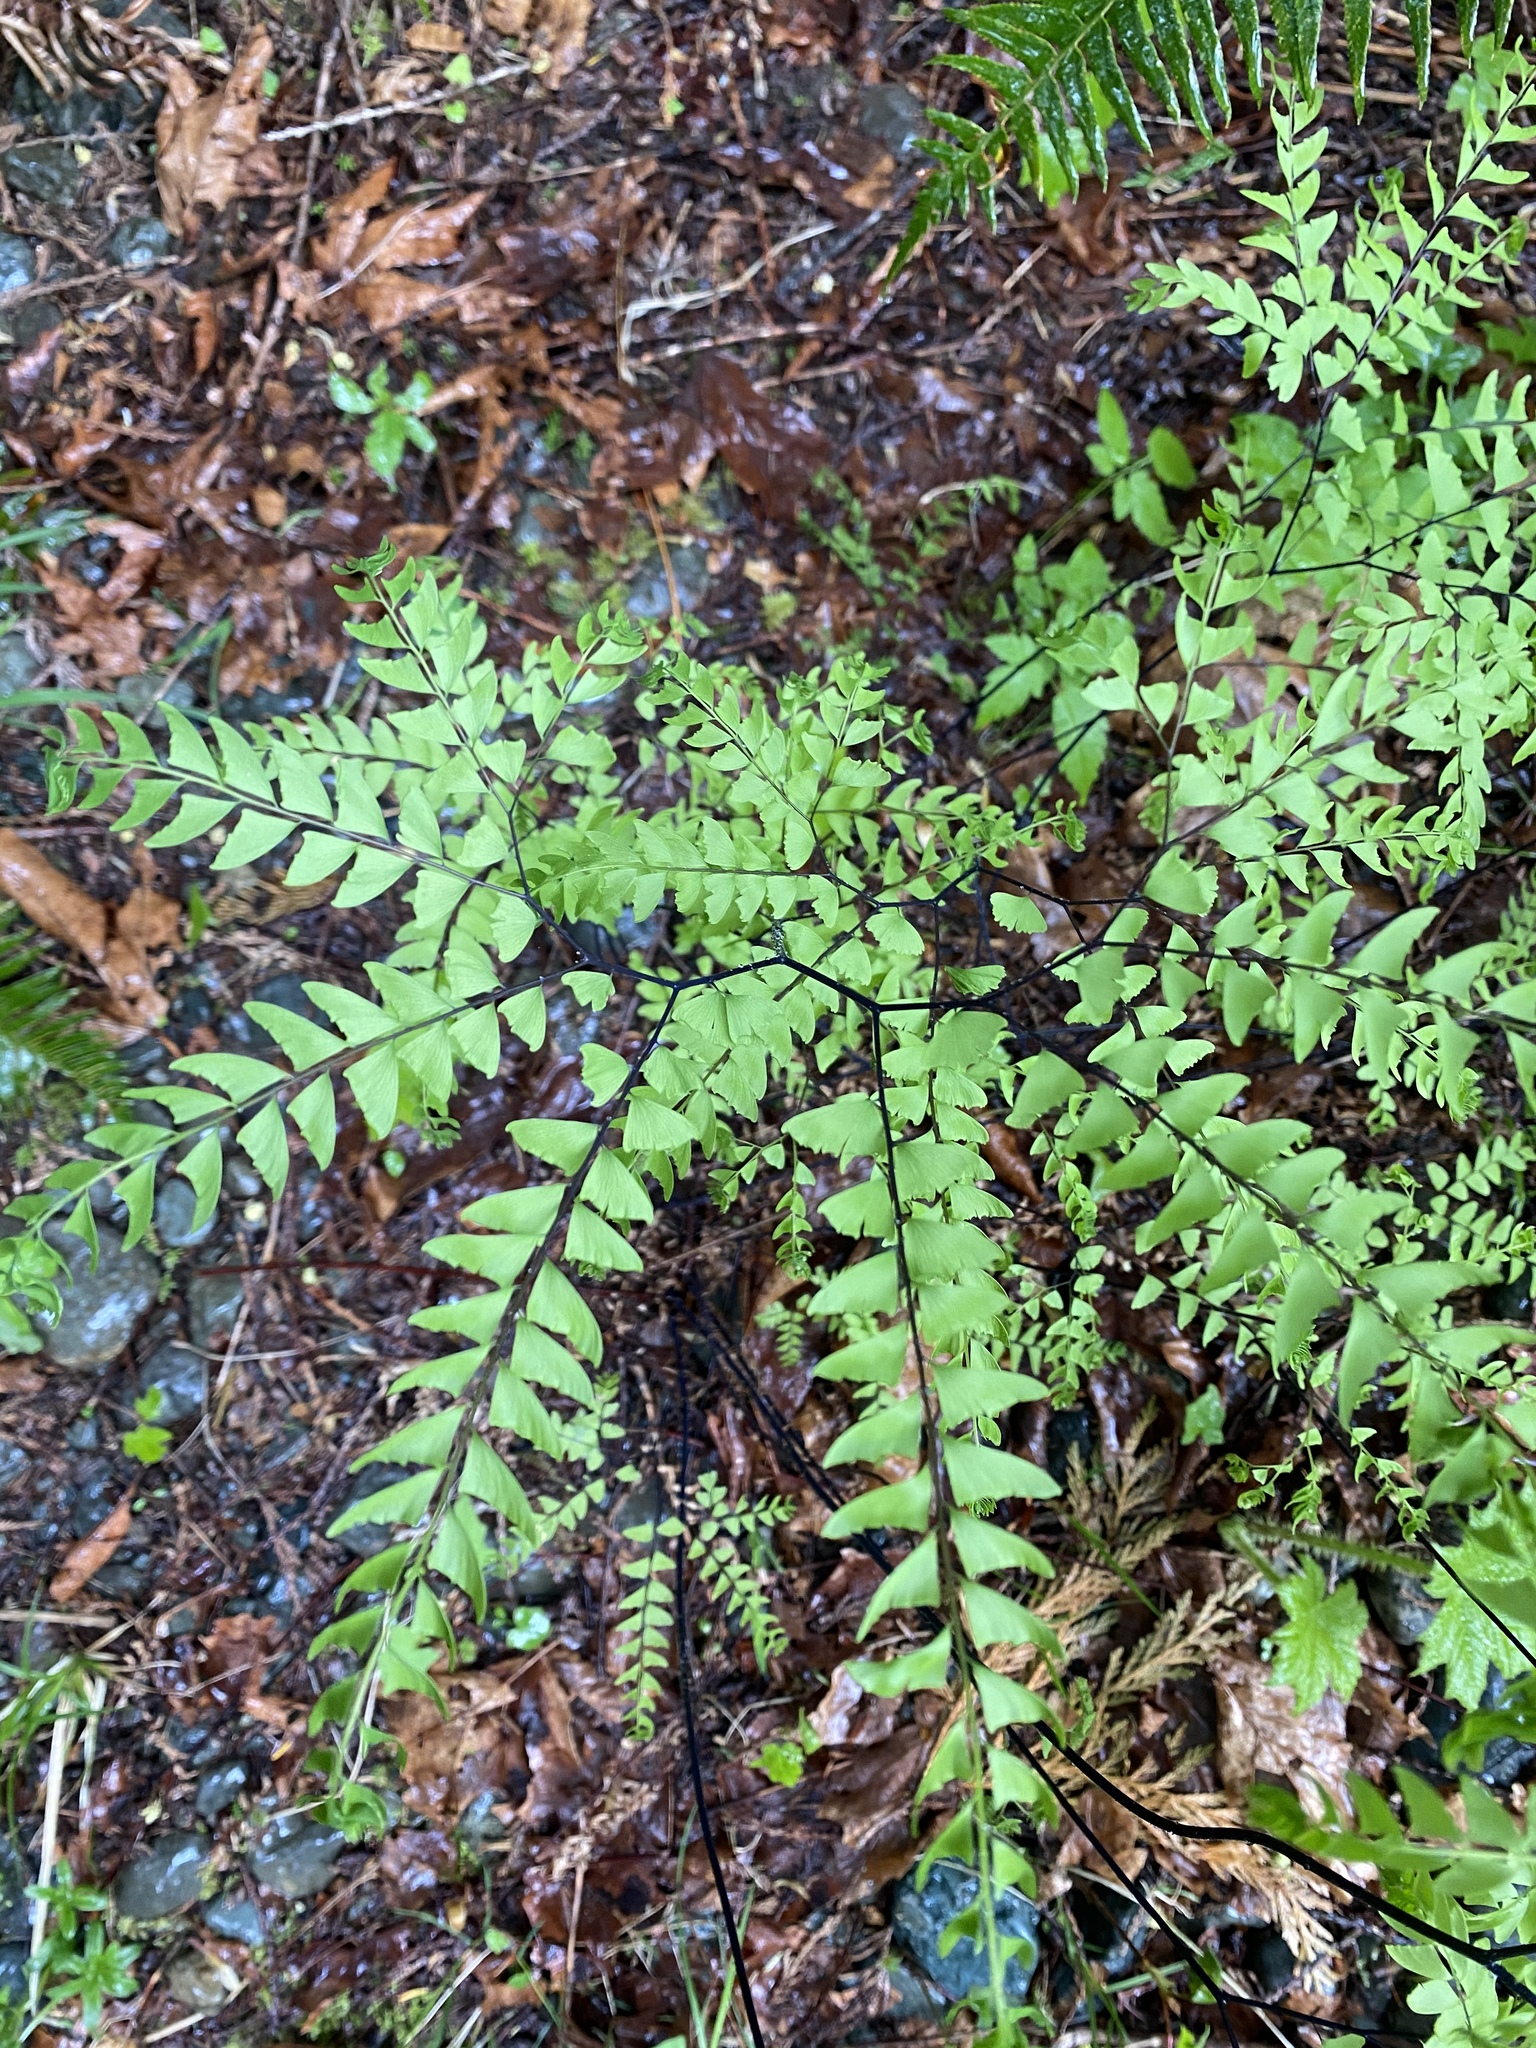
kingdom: Plantae
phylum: Tracheophyta
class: Polypodiopsida
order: Polypodiales
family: Pteridaceae
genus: Adiantum
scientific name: Adiantum aleuticum
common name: Aleutian maidenhair fern
